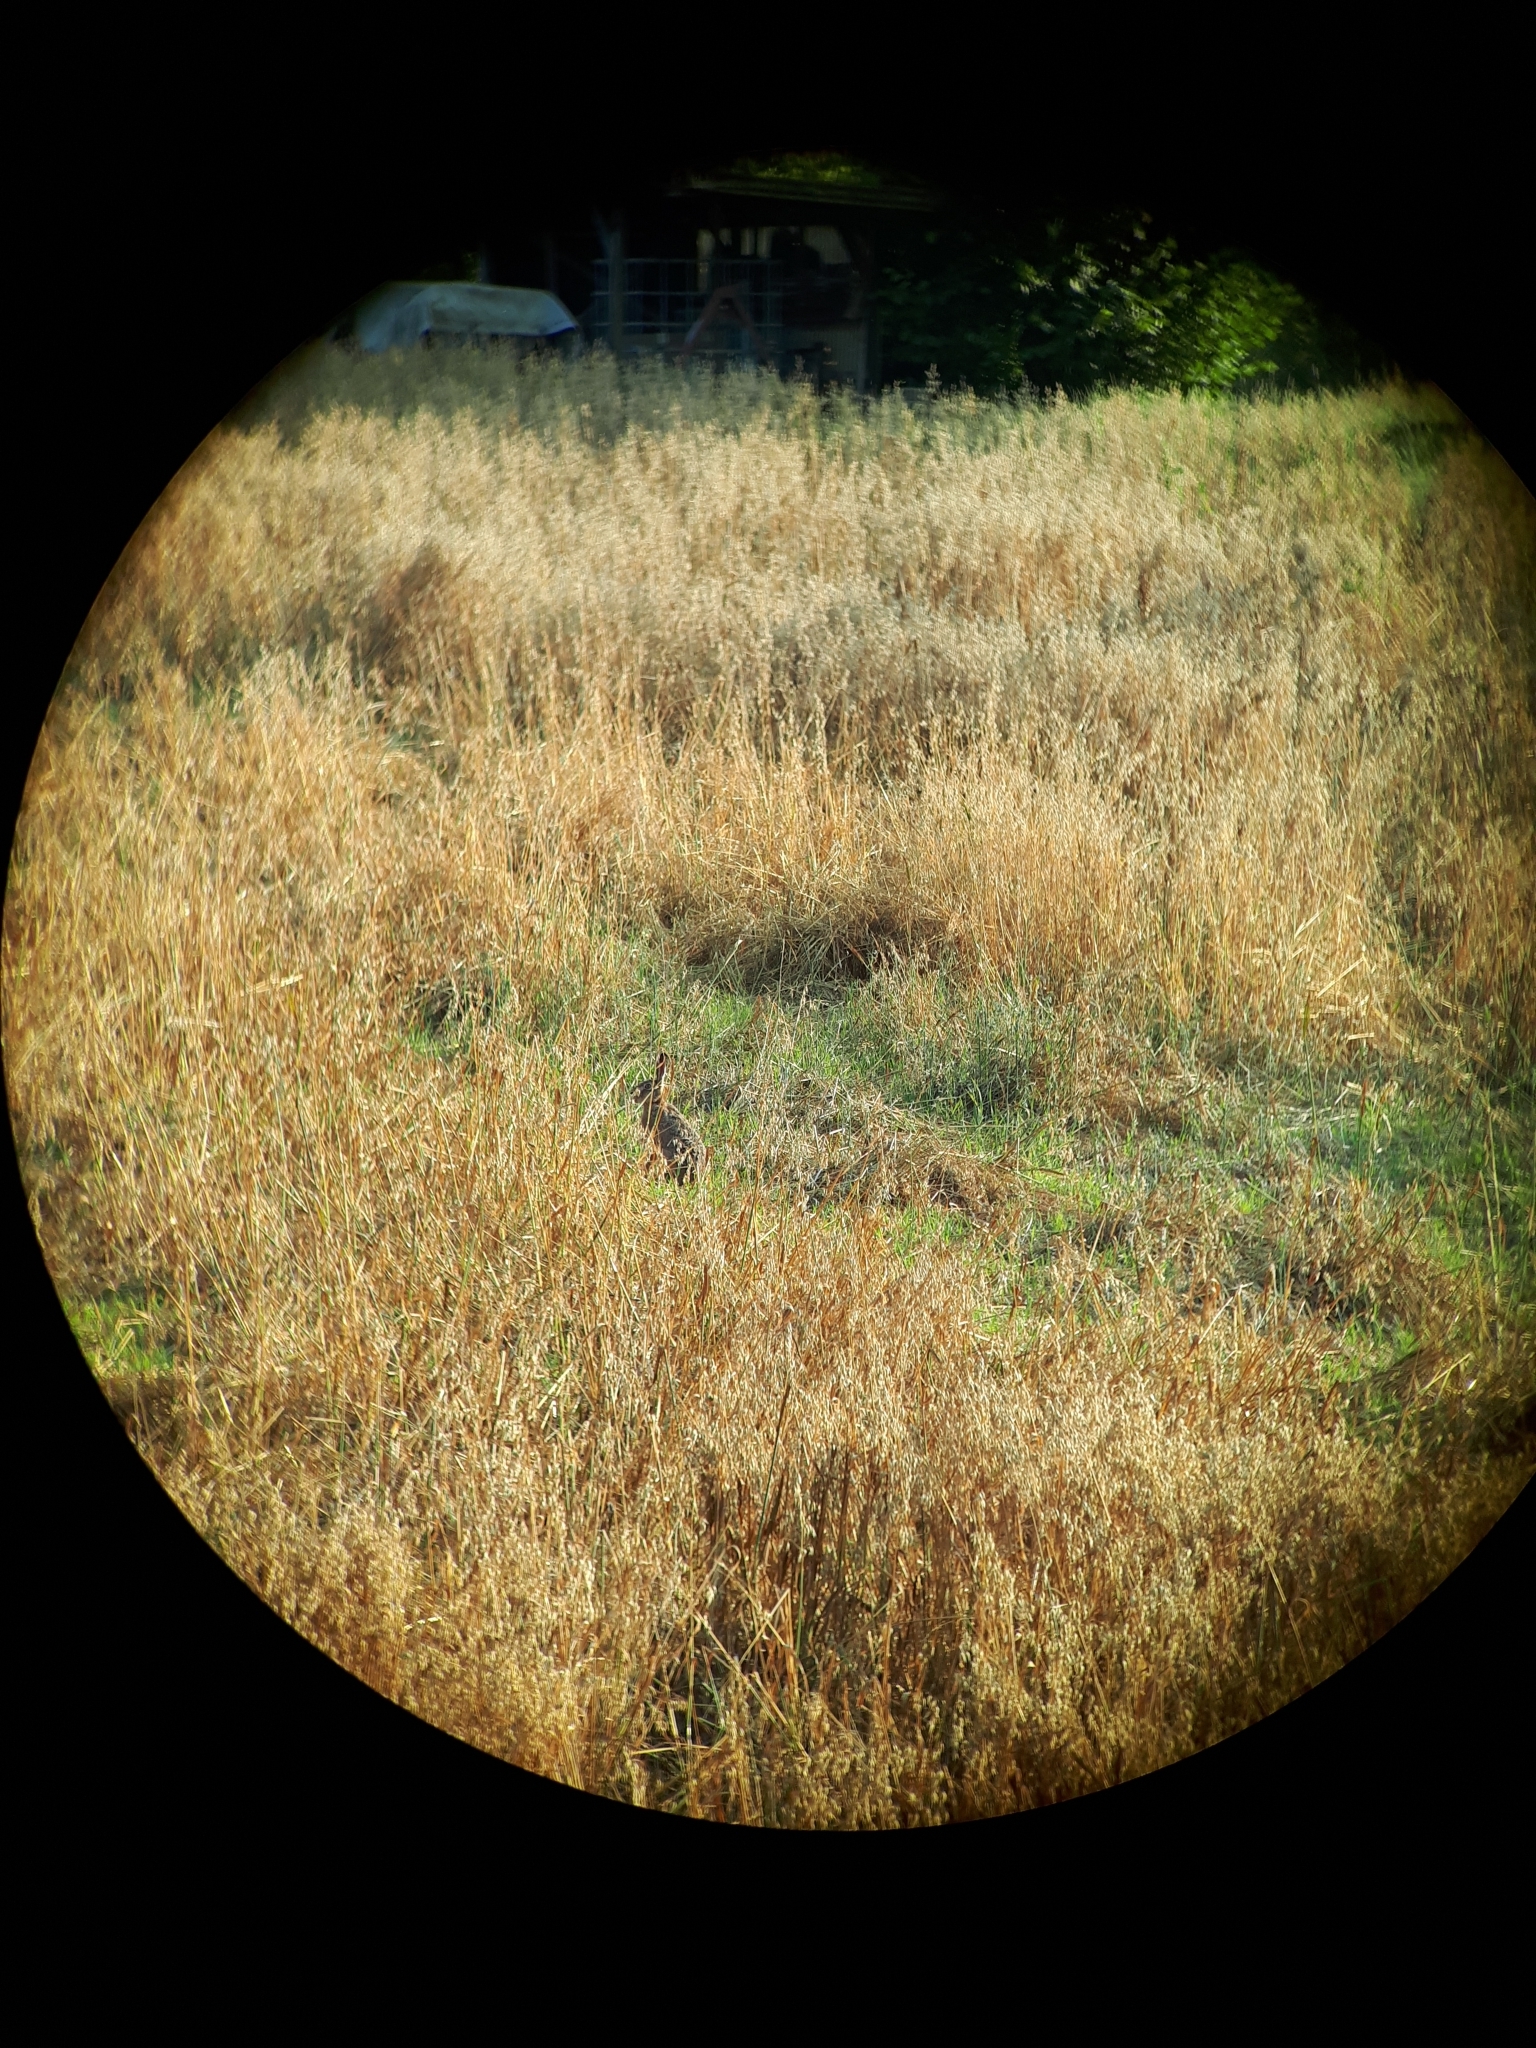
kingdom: Animalia
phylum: Chordata
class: Mammalia
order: Lagomorpha
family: Leporidae
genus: Lepus
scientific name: Lepus europaeus
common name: European hare
